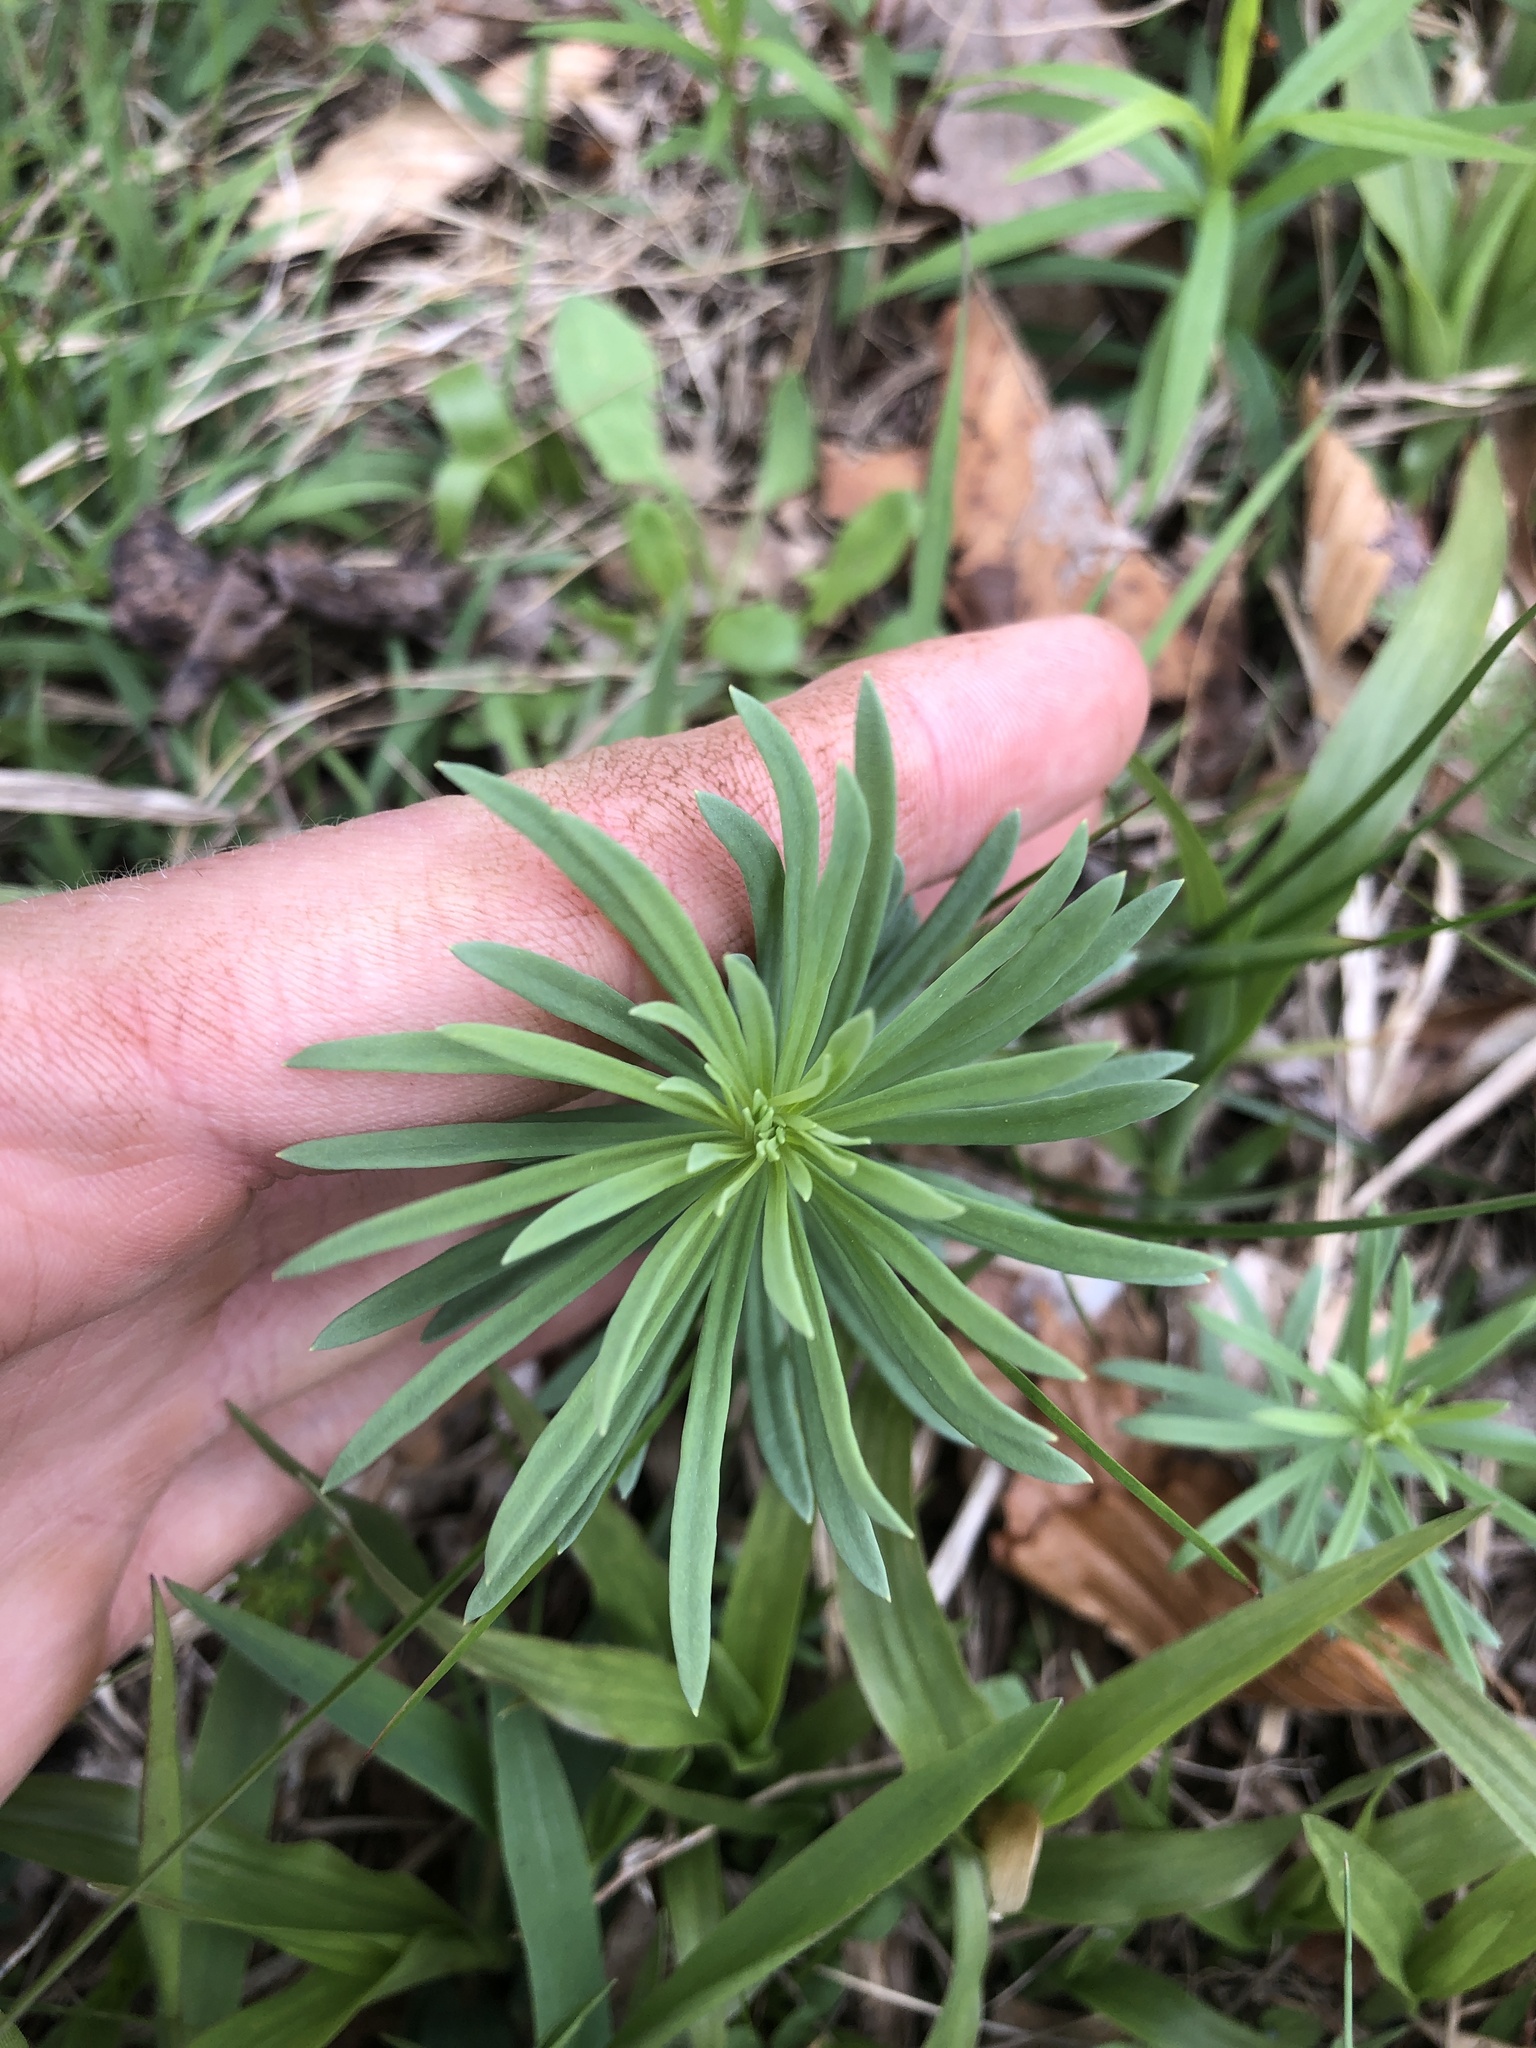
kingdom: Plantae
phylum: Tracheophyta
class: Magnoliopsida
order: Lamiales
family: Plantaginaceae
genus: Linaria
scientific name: Linaria vulgaris
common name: Butter and eggs
